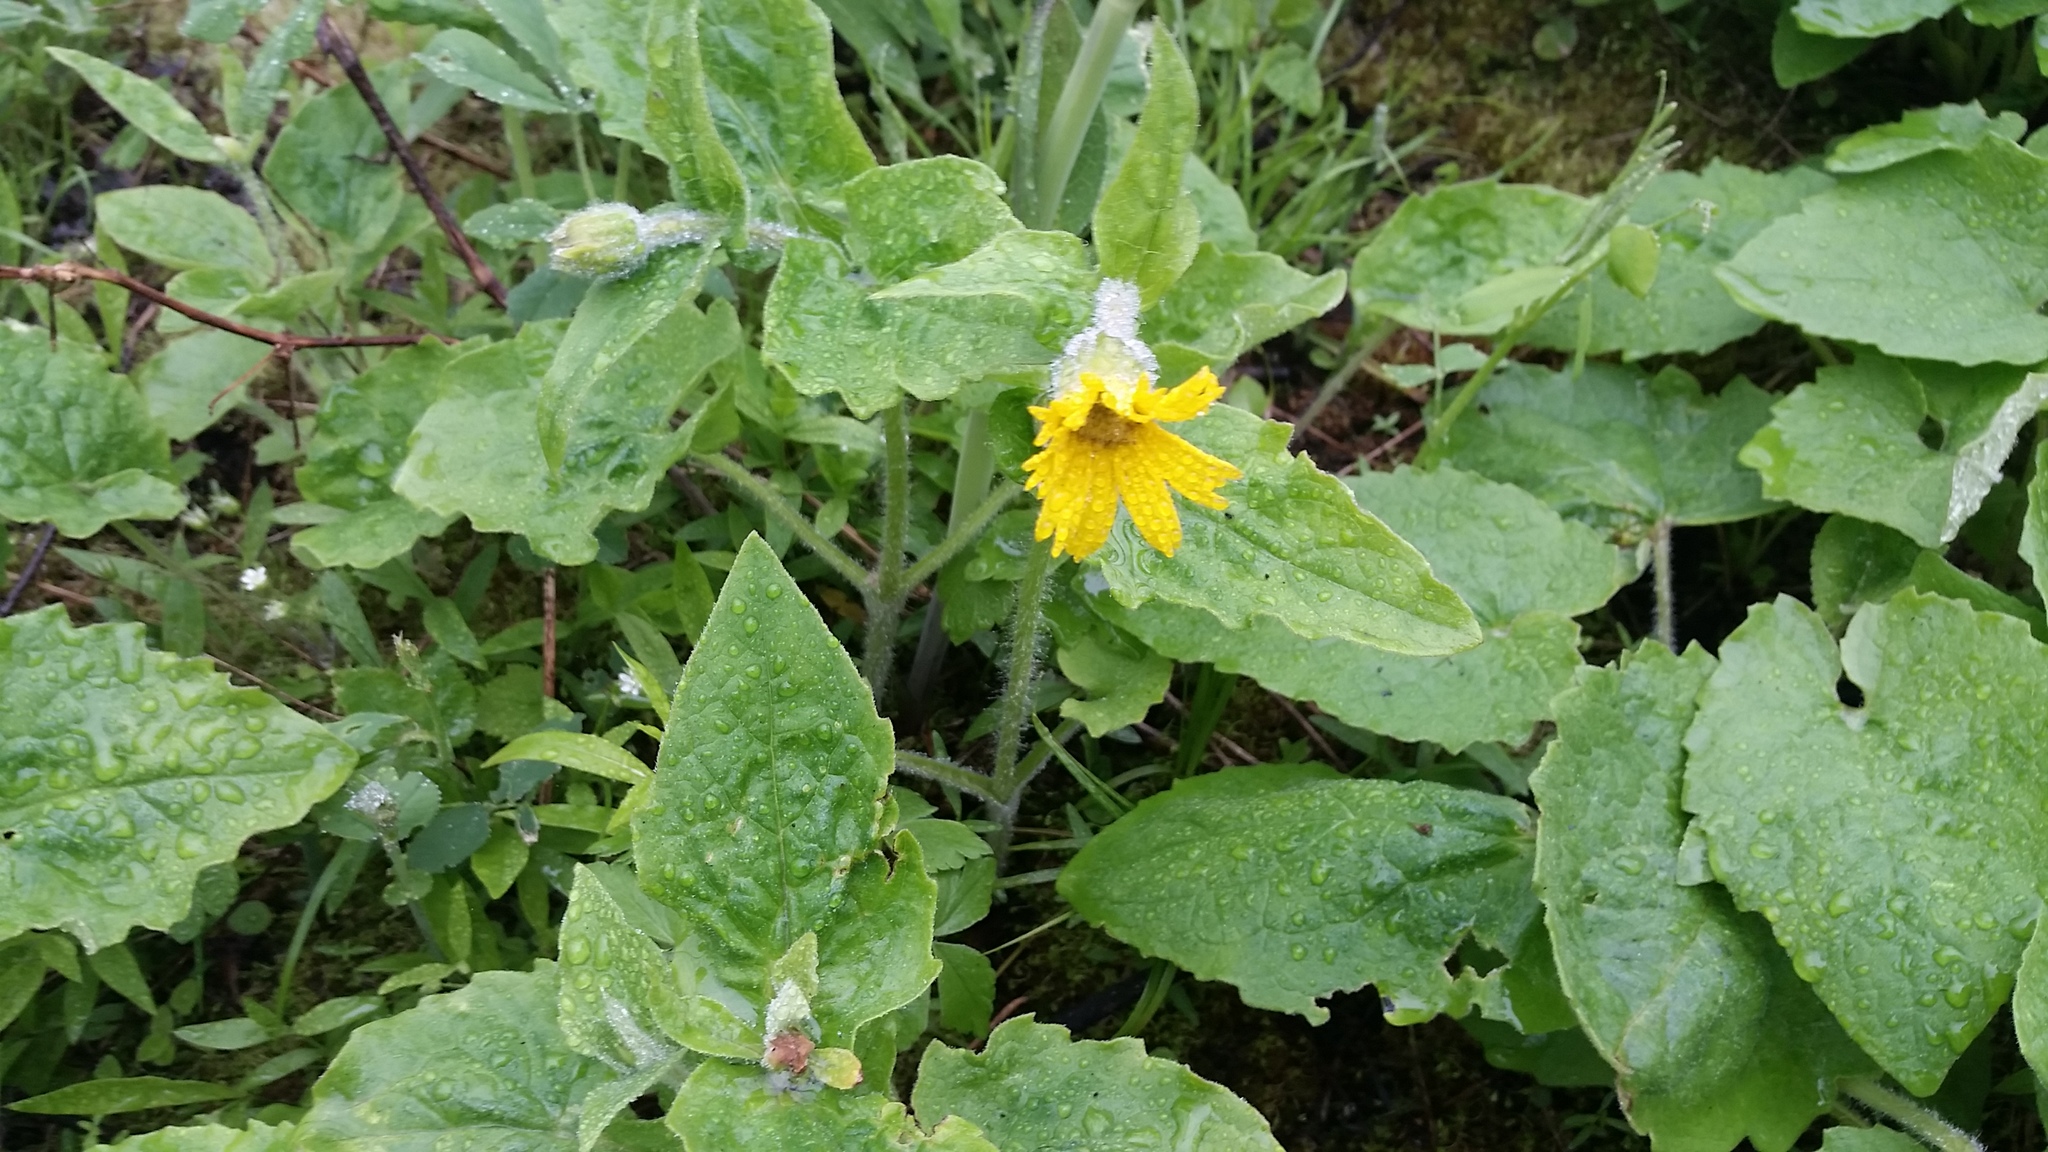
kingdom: Plantae
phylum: Tracheophyta
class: Magnoliopsida
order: Asterales
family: Asteraceae
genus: Arnica
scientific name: Arnica cordifolia
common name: Heart-leaf arnica
